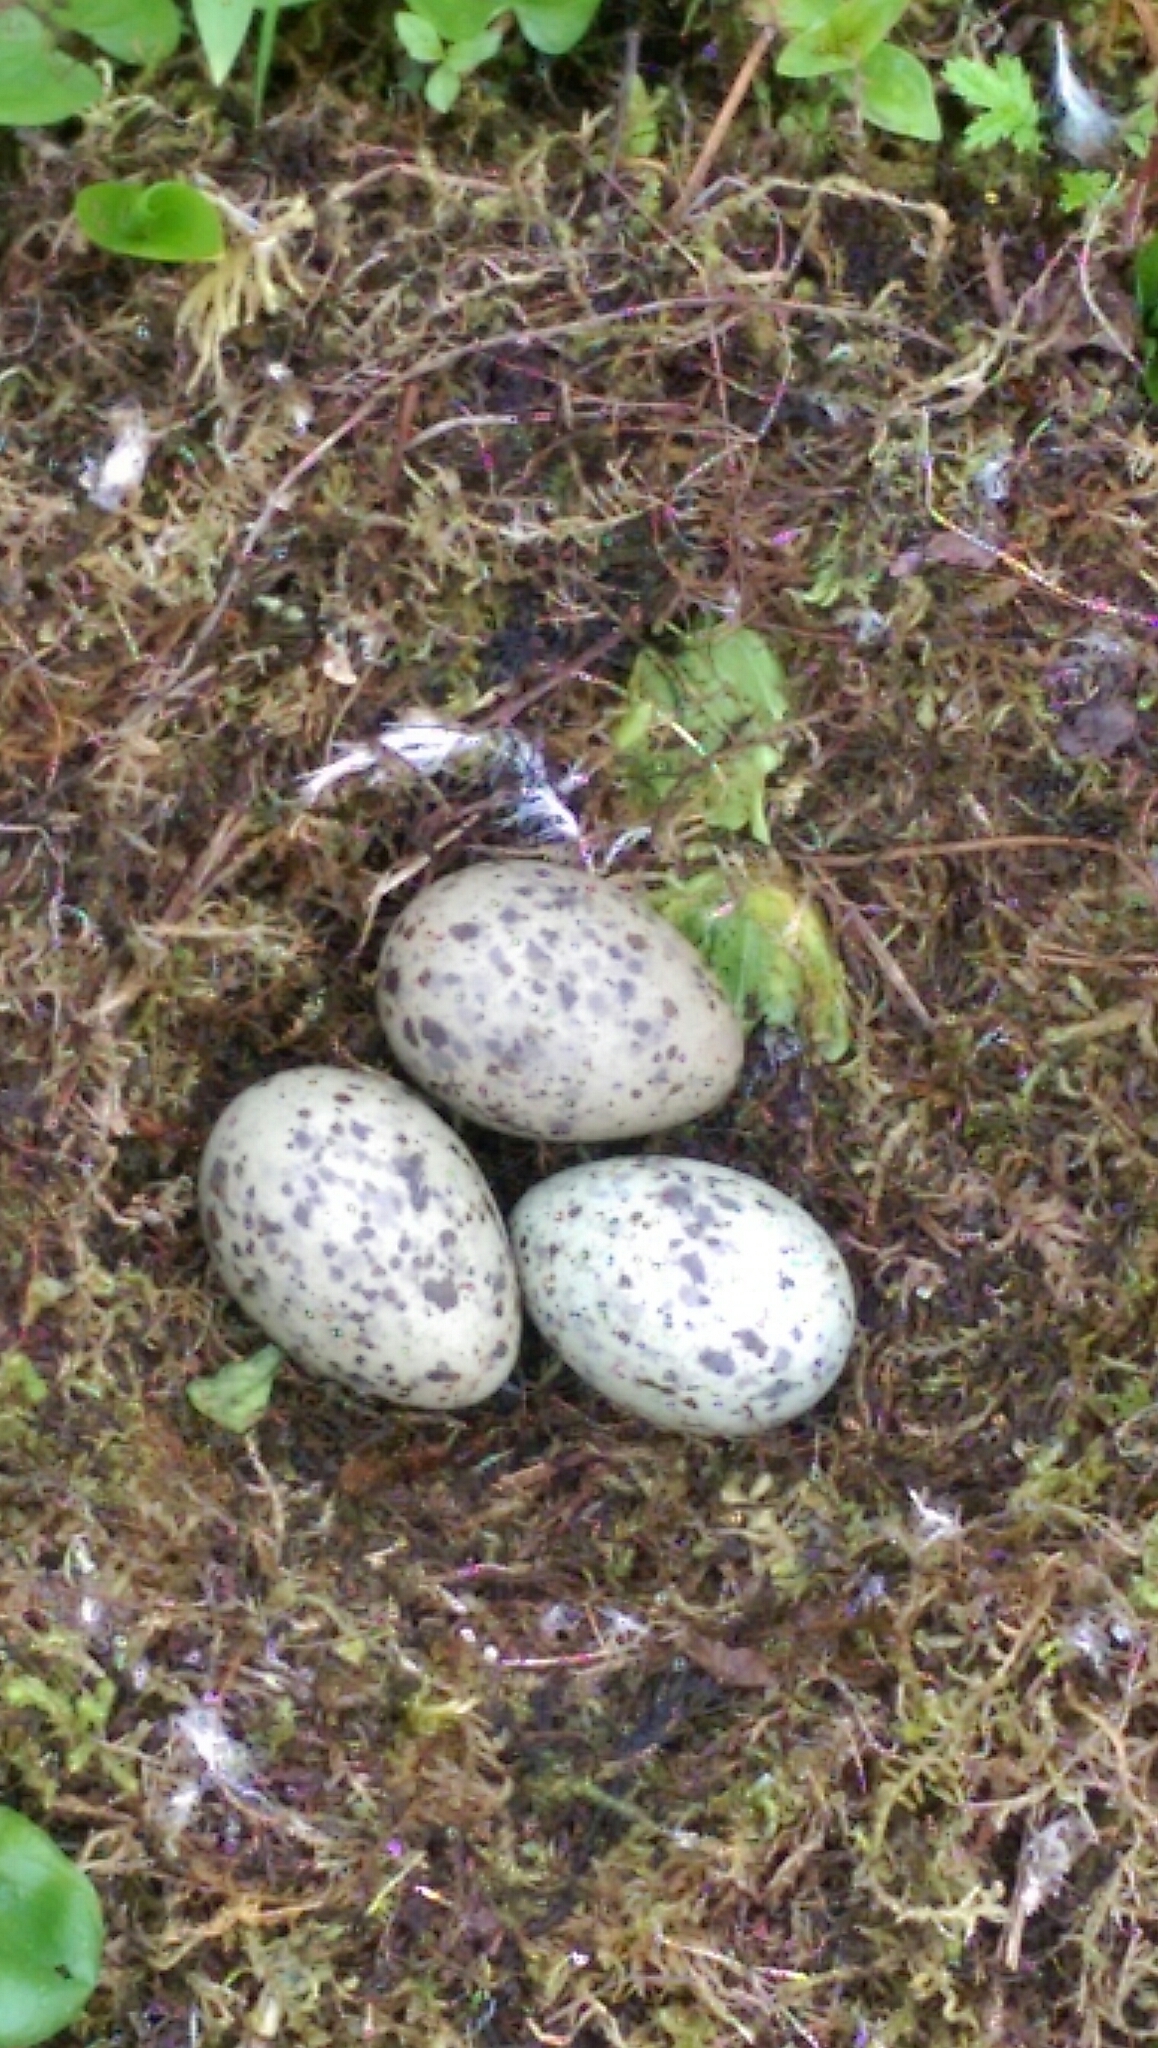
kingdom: Animalia
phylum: Chordata
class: Aves
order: Charadriiformes
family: Laridae
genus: Larus
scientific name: Larus glaucescens
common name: Glaucous-winged gull
